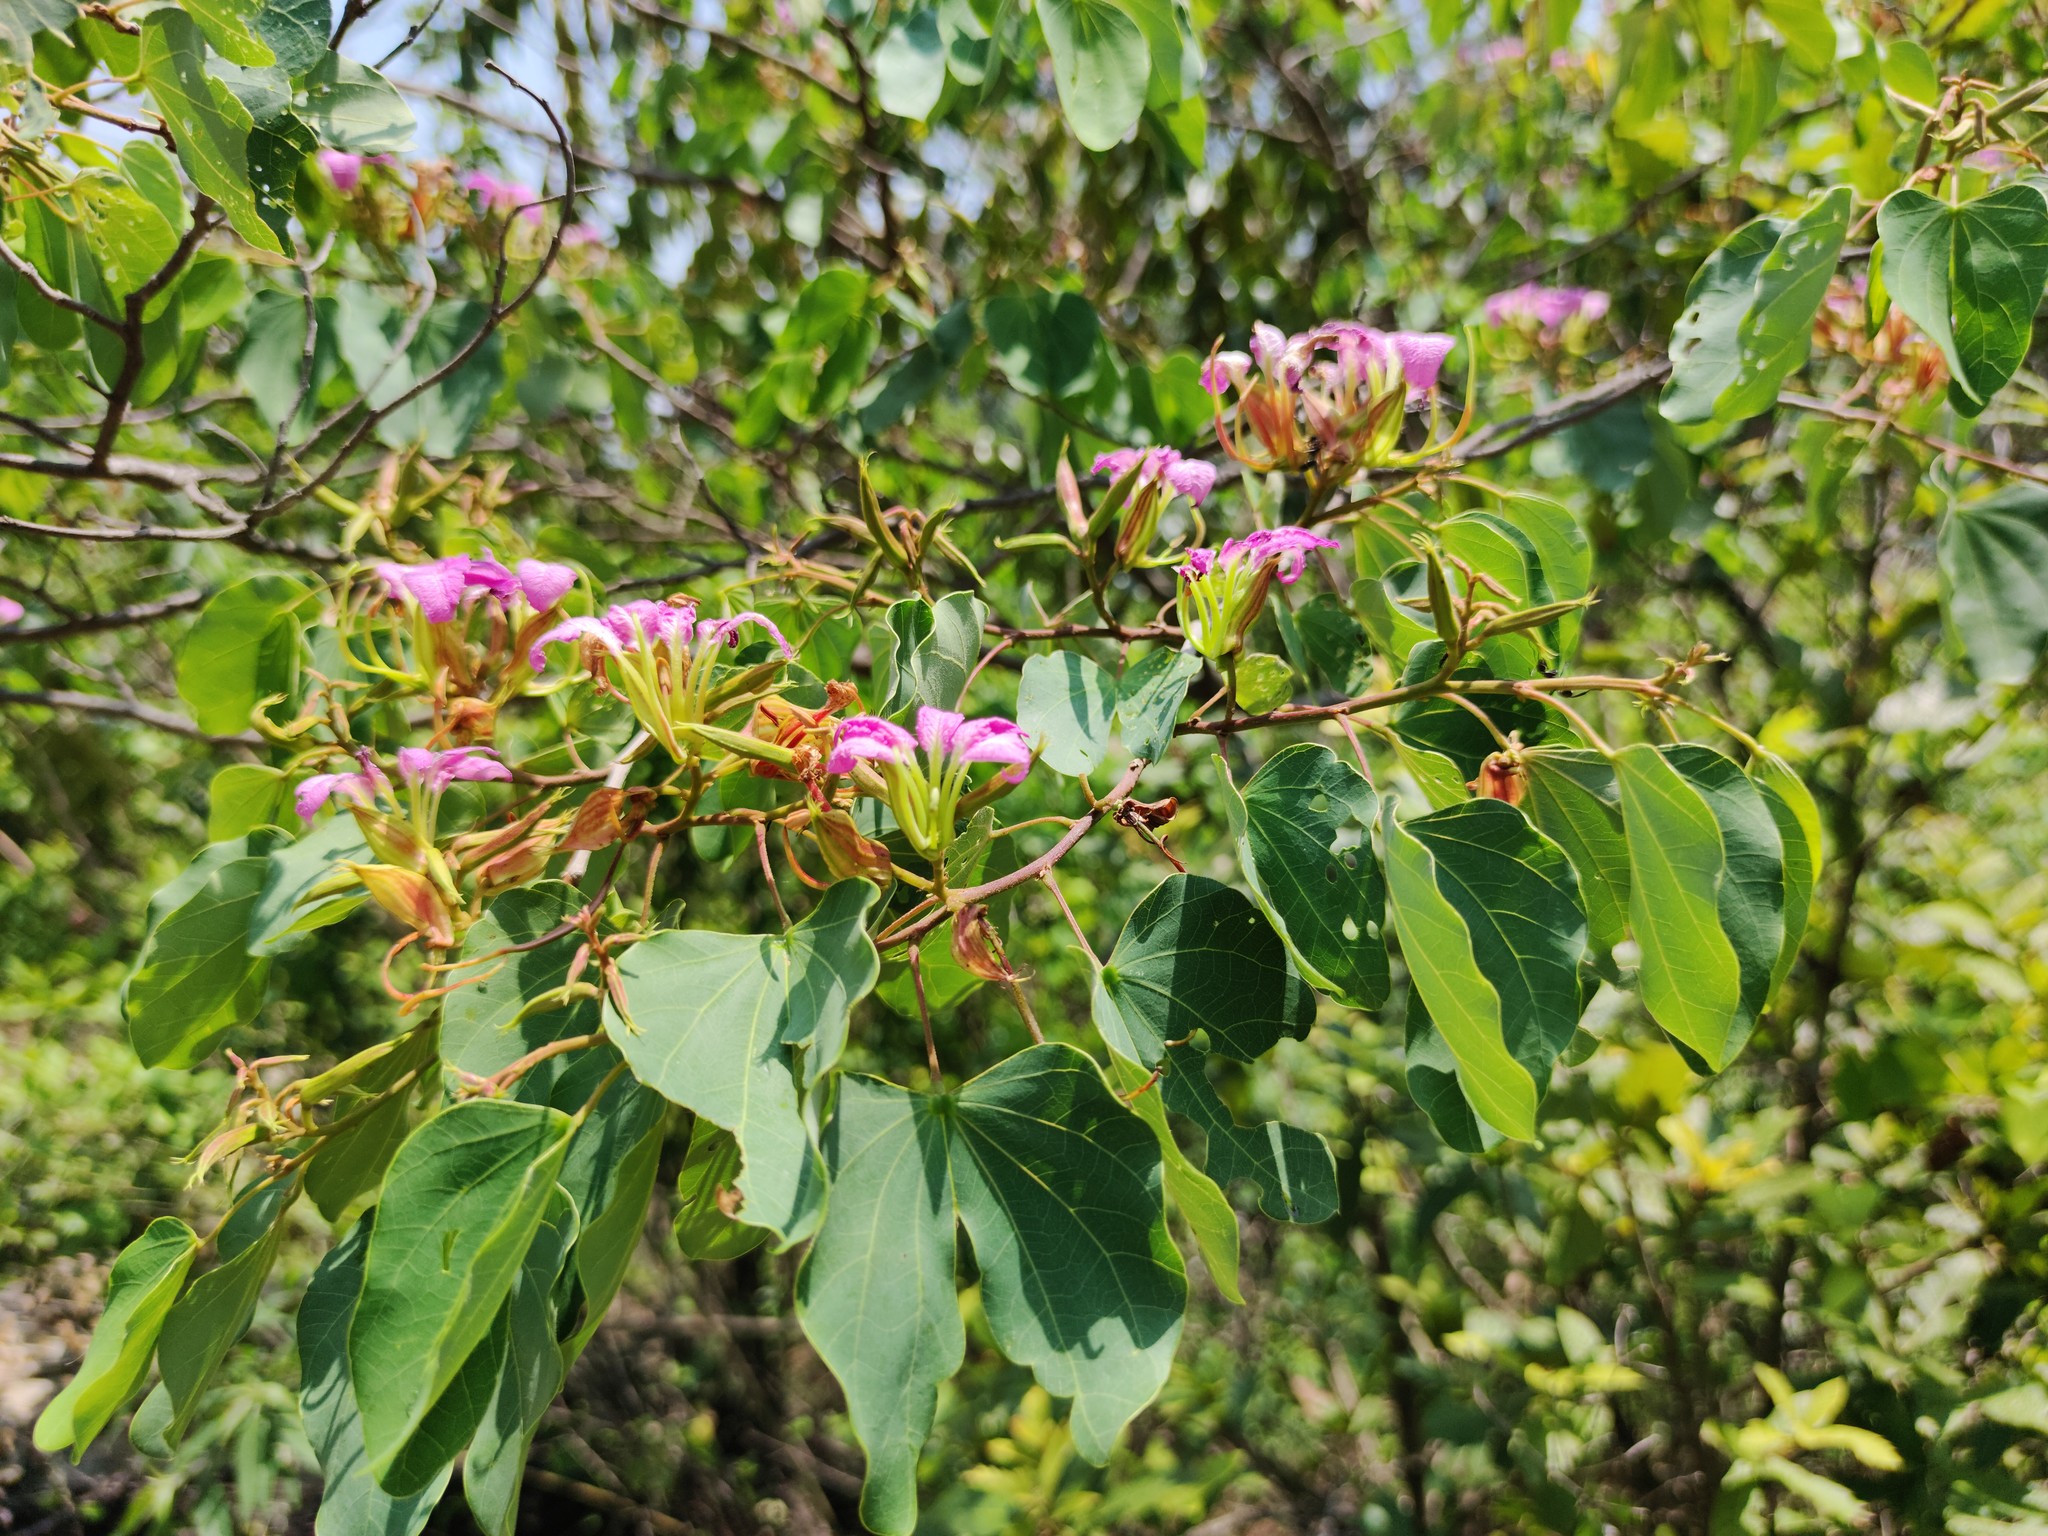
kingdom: Plantae
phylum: Tracheophyta
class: Magnoliopsida
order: Fabales
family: Fabaceae
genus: Bauhinia
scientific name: Bauhinia macranthera
